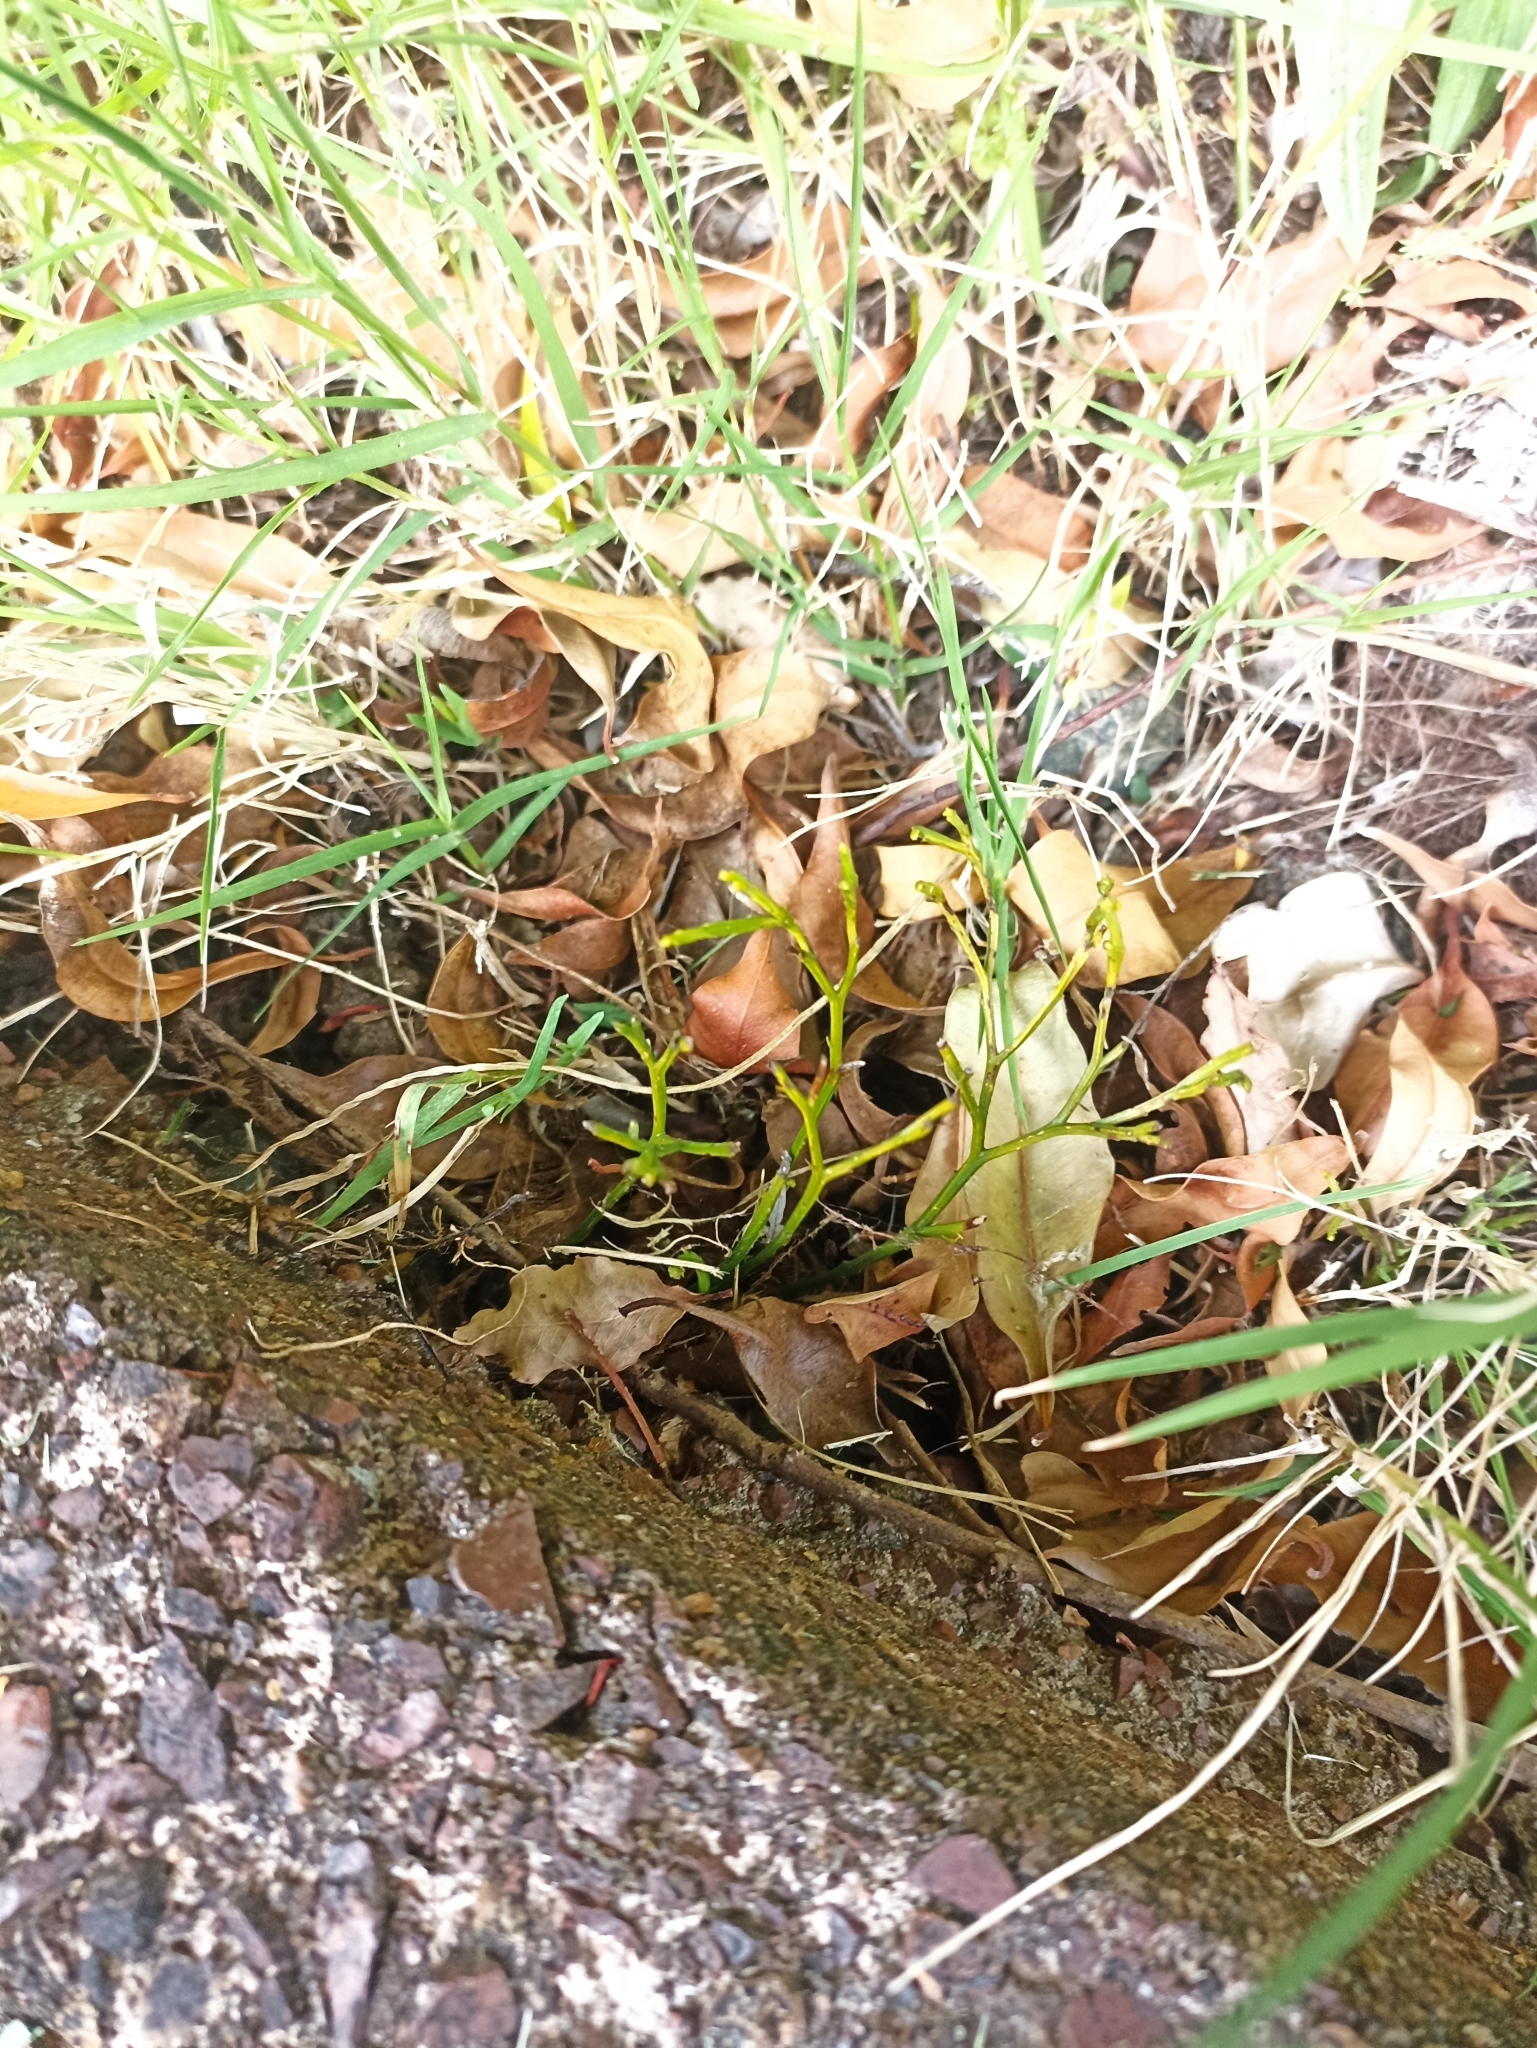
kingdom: Plantae
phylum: Tracheophyta
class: Polypodiopsida
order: Psilotales
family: Psilotaceae
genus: Psilotum
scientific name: Psilotum nudum
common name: Skeleton fork fern
